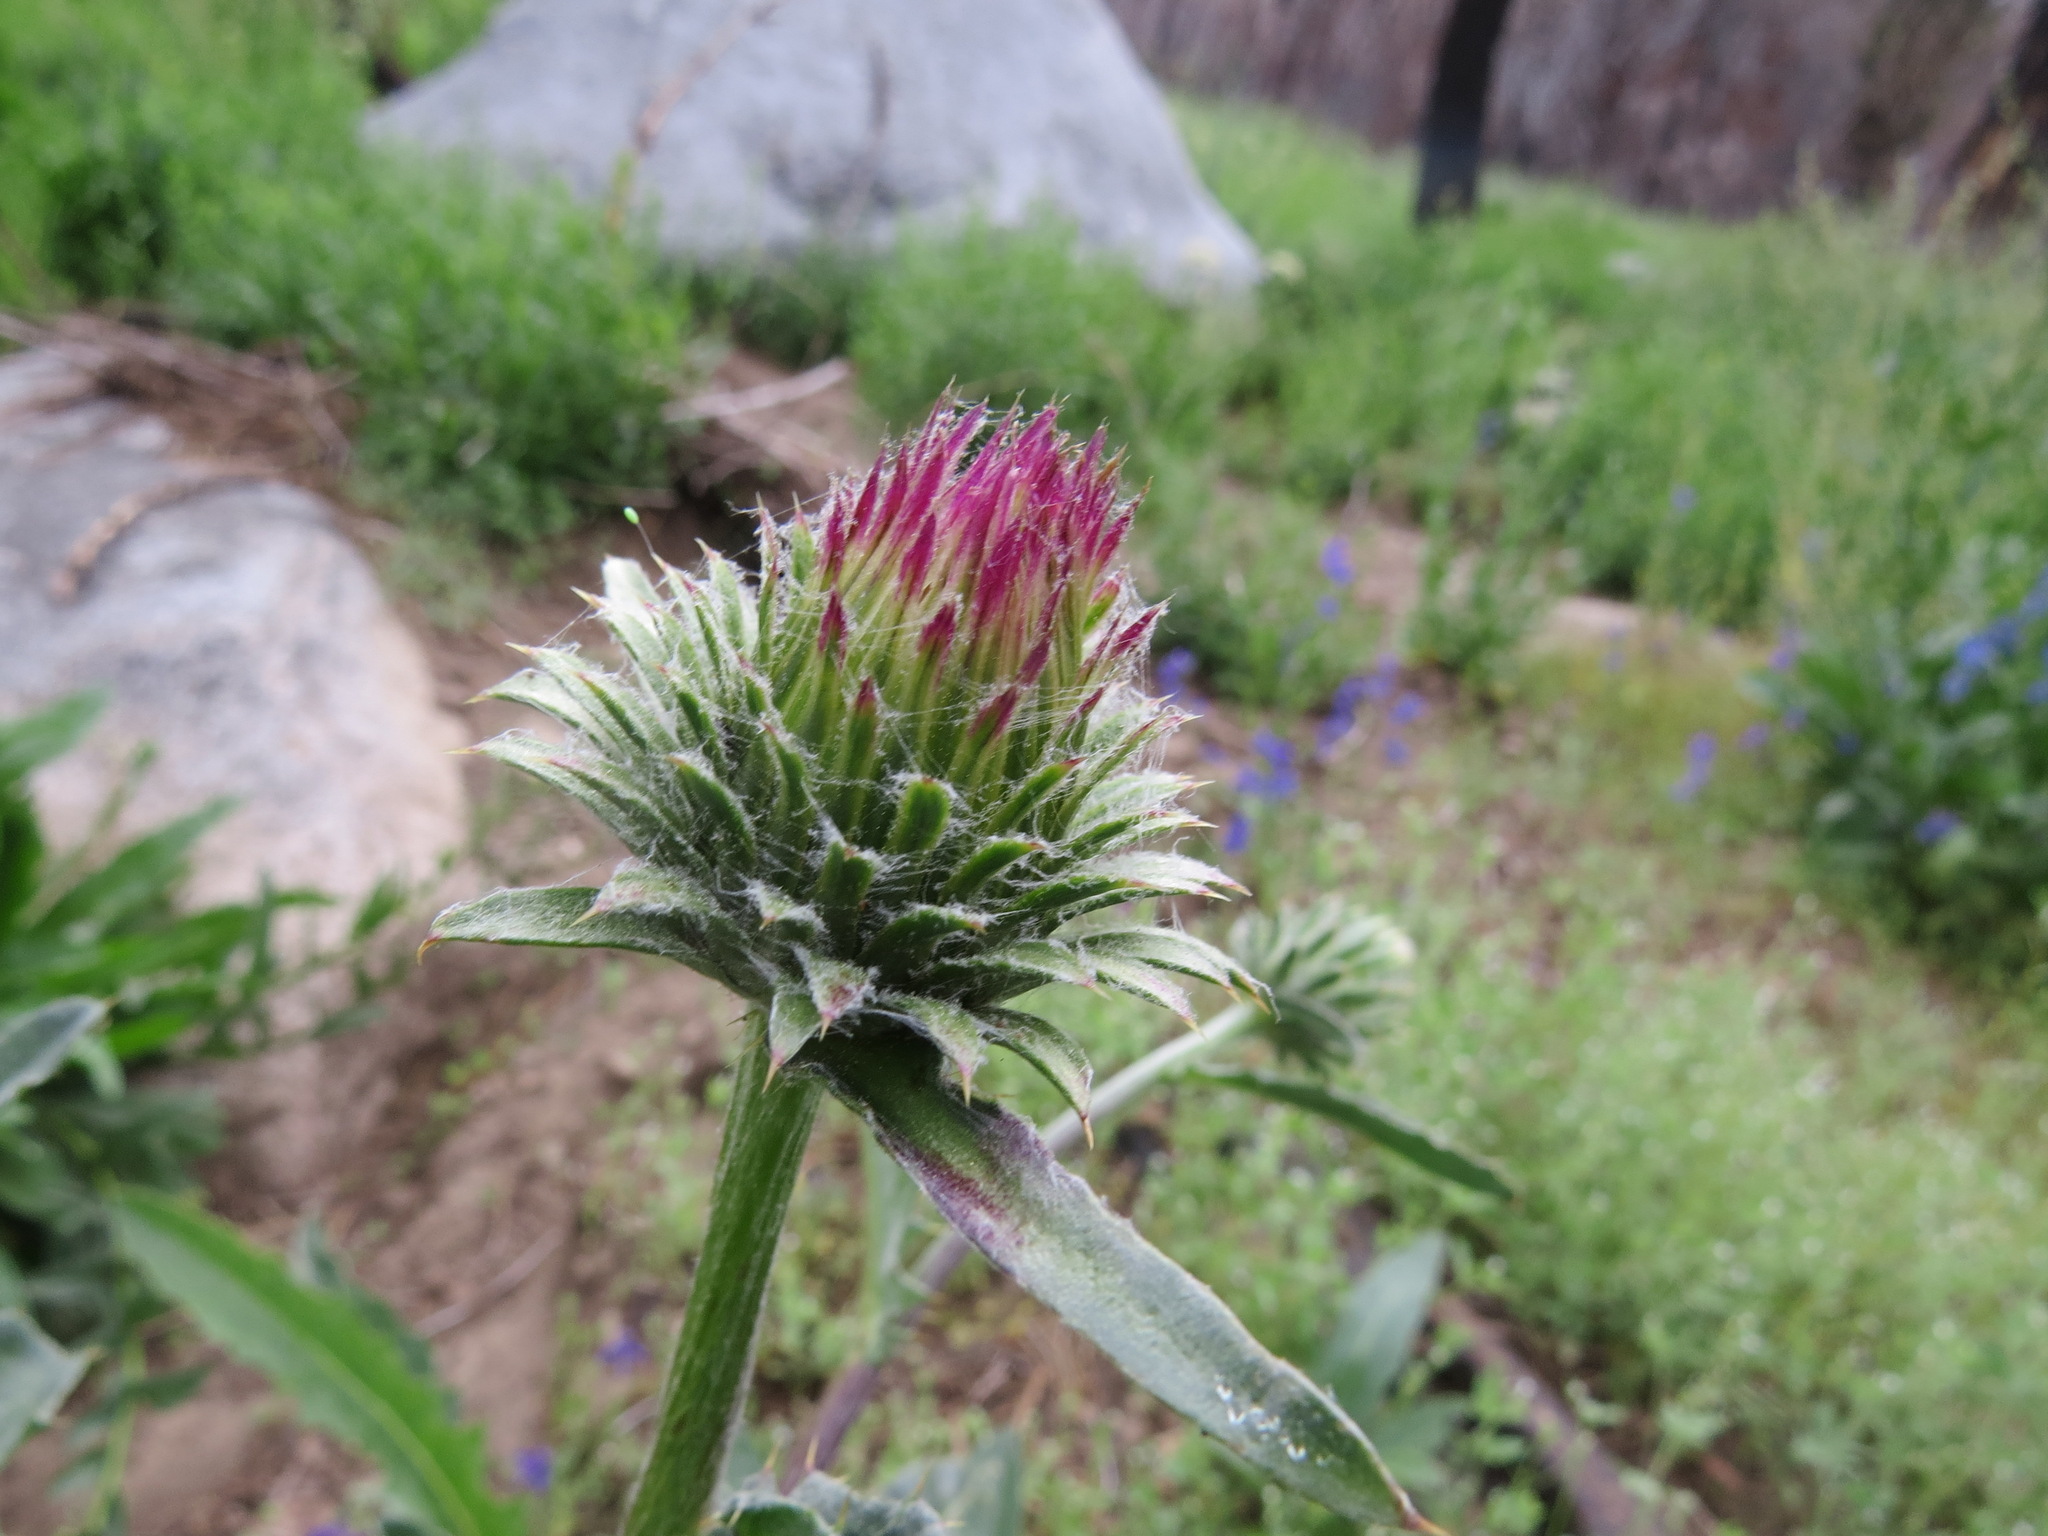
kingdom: Plantae
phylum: Tracheophyta
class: Magnoliopsida
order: Asterales
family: Asteraceae
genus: Cirsium
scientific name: Cirsium andersonii
